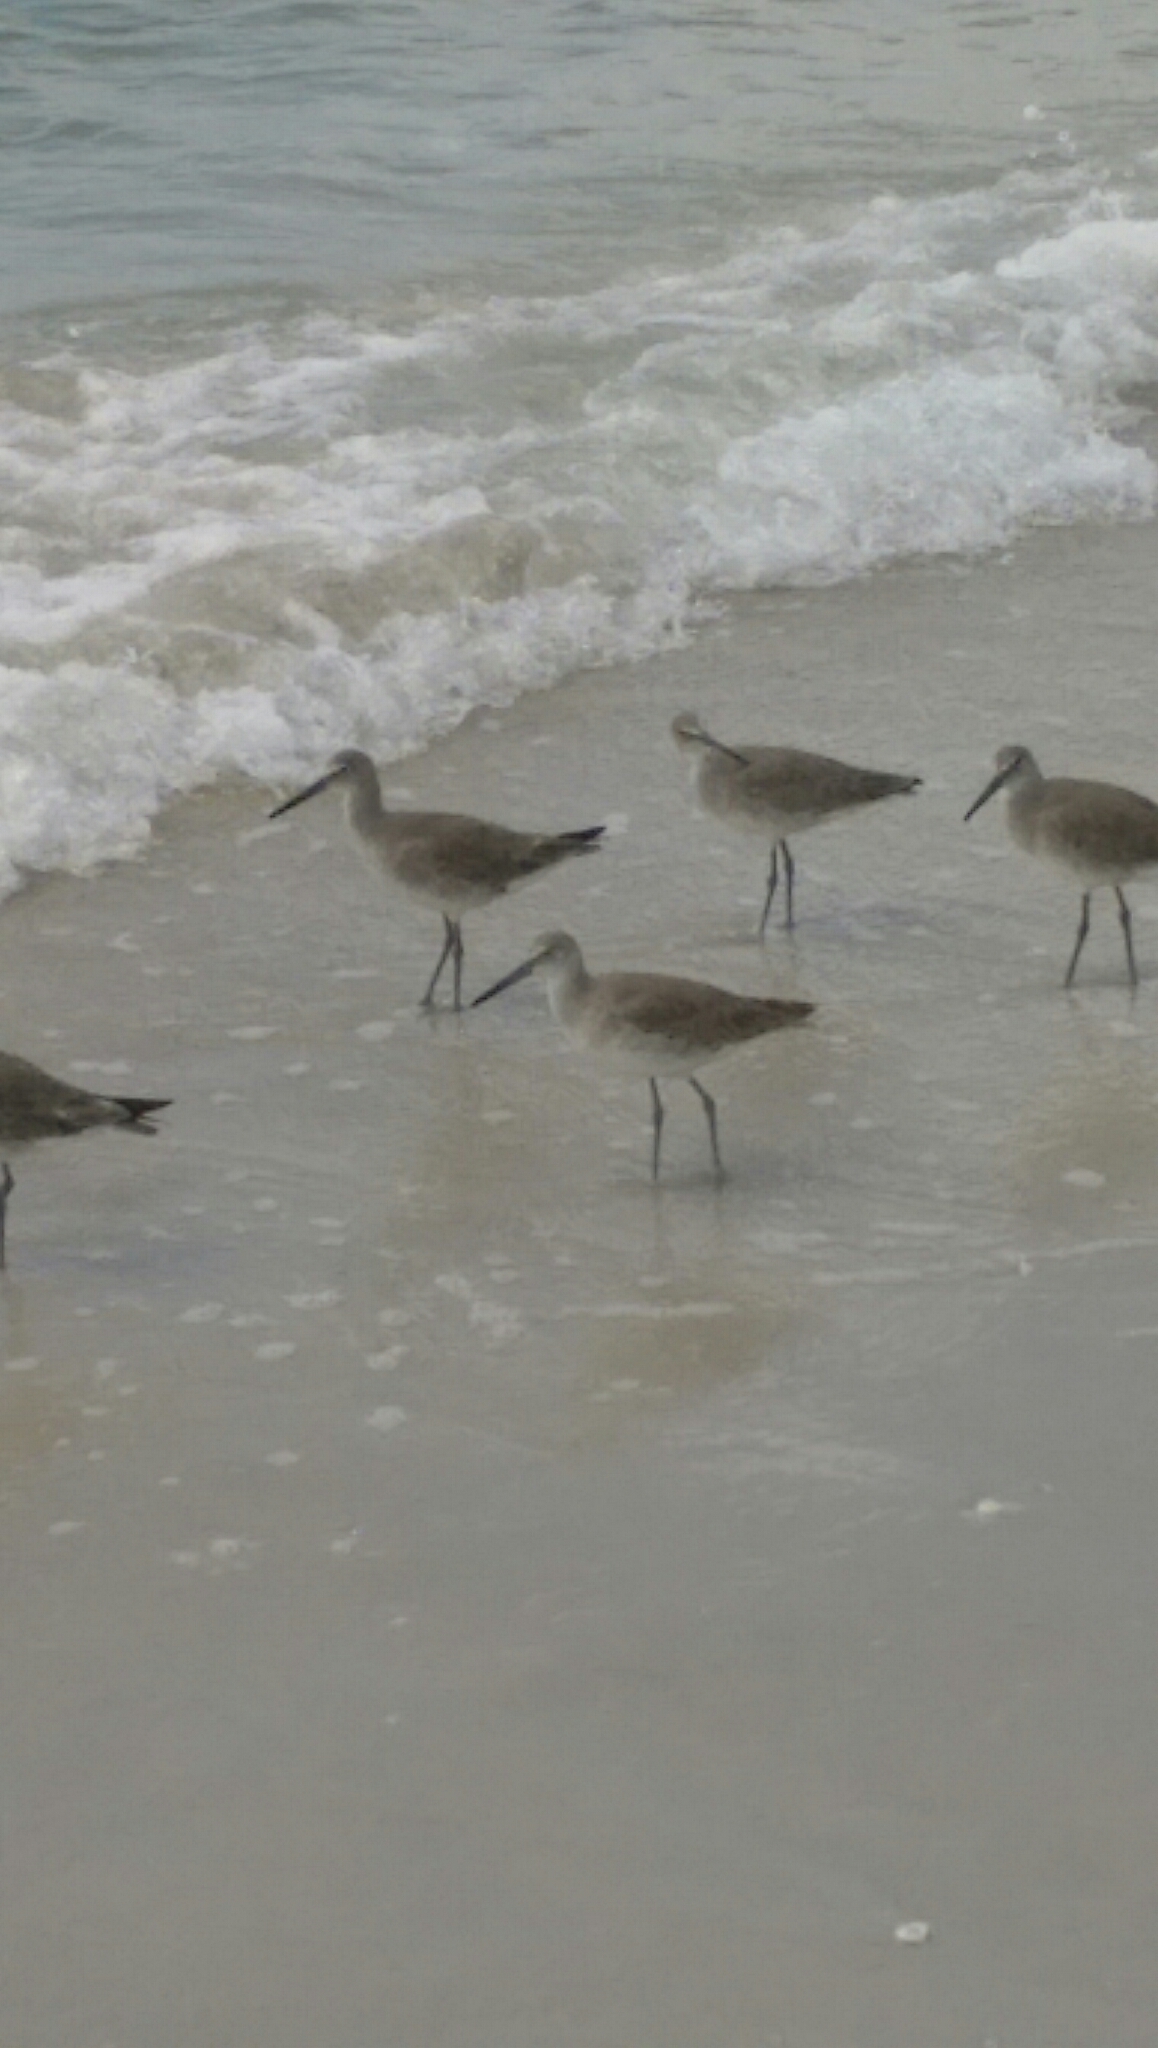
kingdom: Animalia
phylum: Chordata
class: Aves
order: Charadriiformes
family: Scolopacidae
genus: Tringa
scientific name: Tringa semipalmata
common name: Willet
